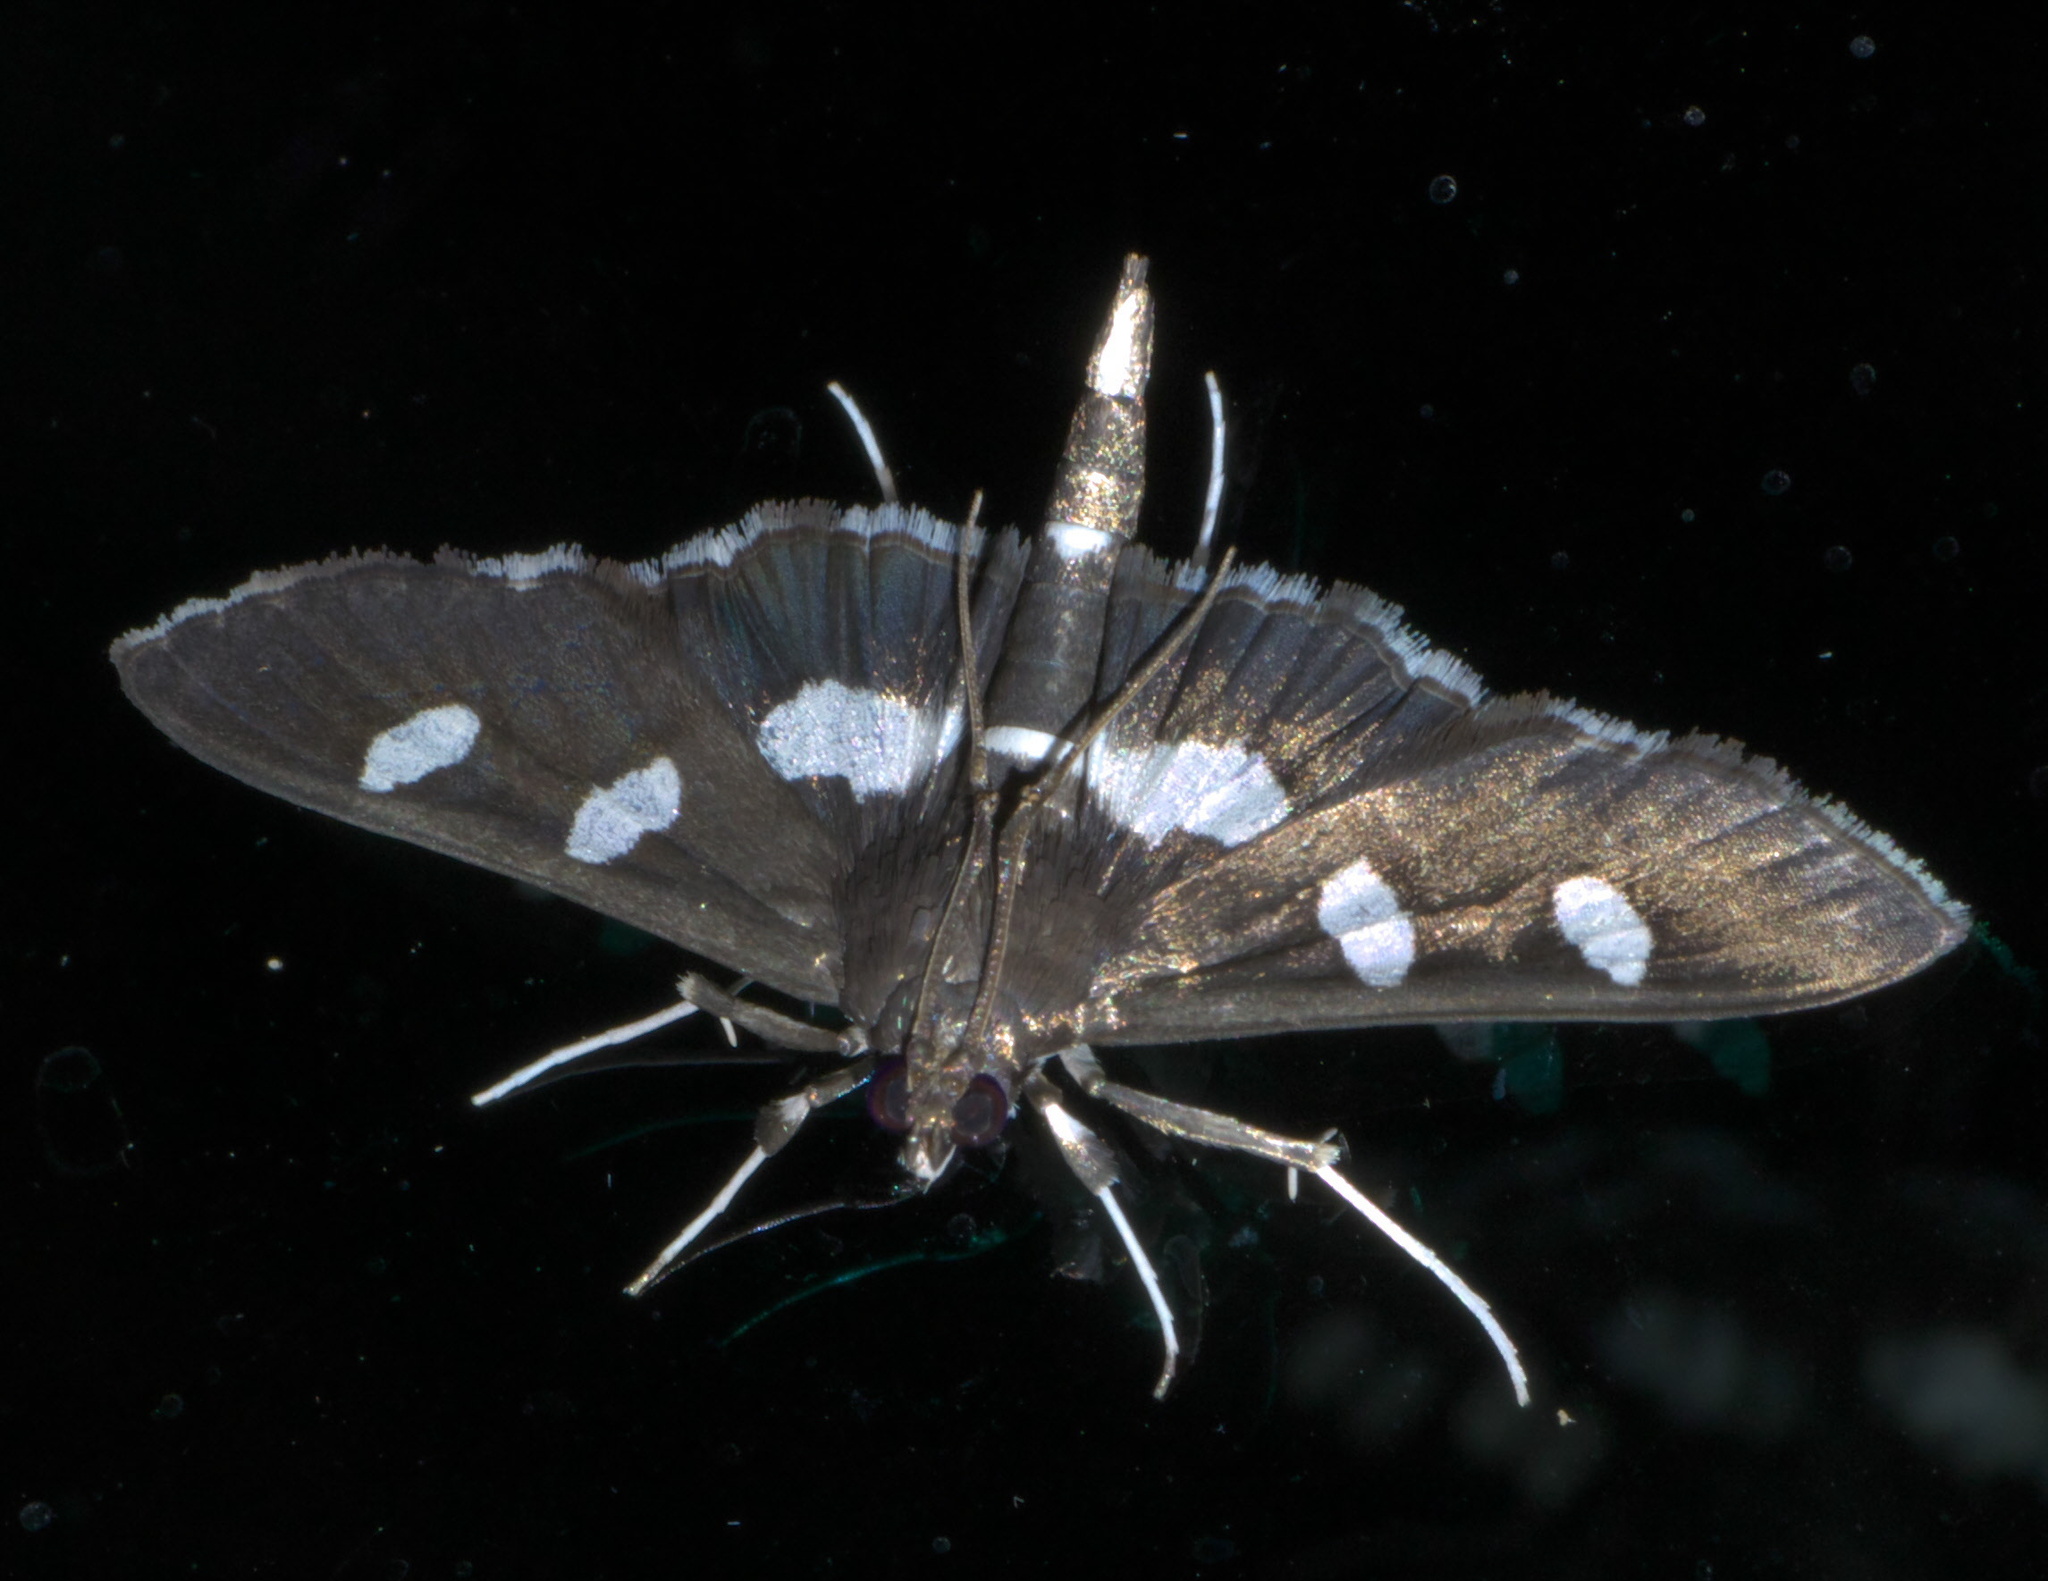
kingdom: Animalia
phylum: Arthropoda
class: Insecta
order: Lepidoptera
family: Crambidae
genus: Desmia
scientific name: Desmia
